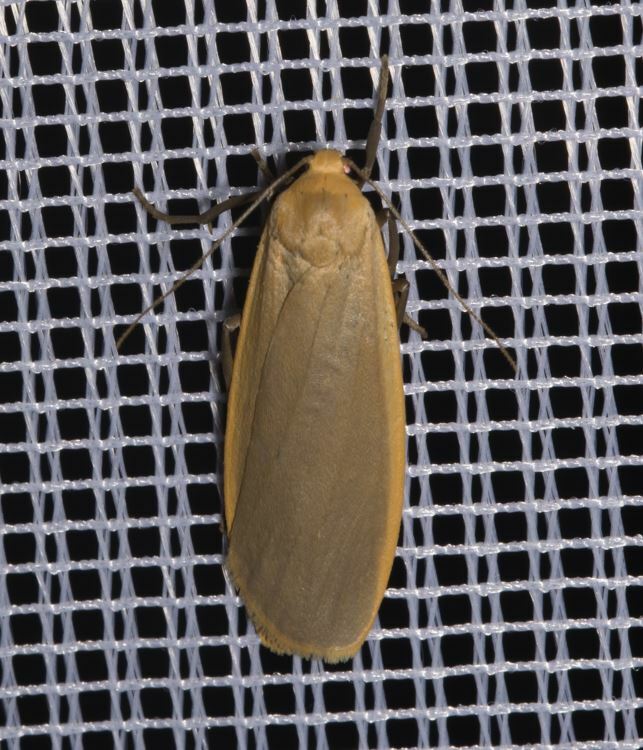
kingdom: Animalia
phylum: Arthropoda
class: Insecta
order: Lepidoptera
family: Erebidae
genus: Katha
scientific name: Katha depressa
